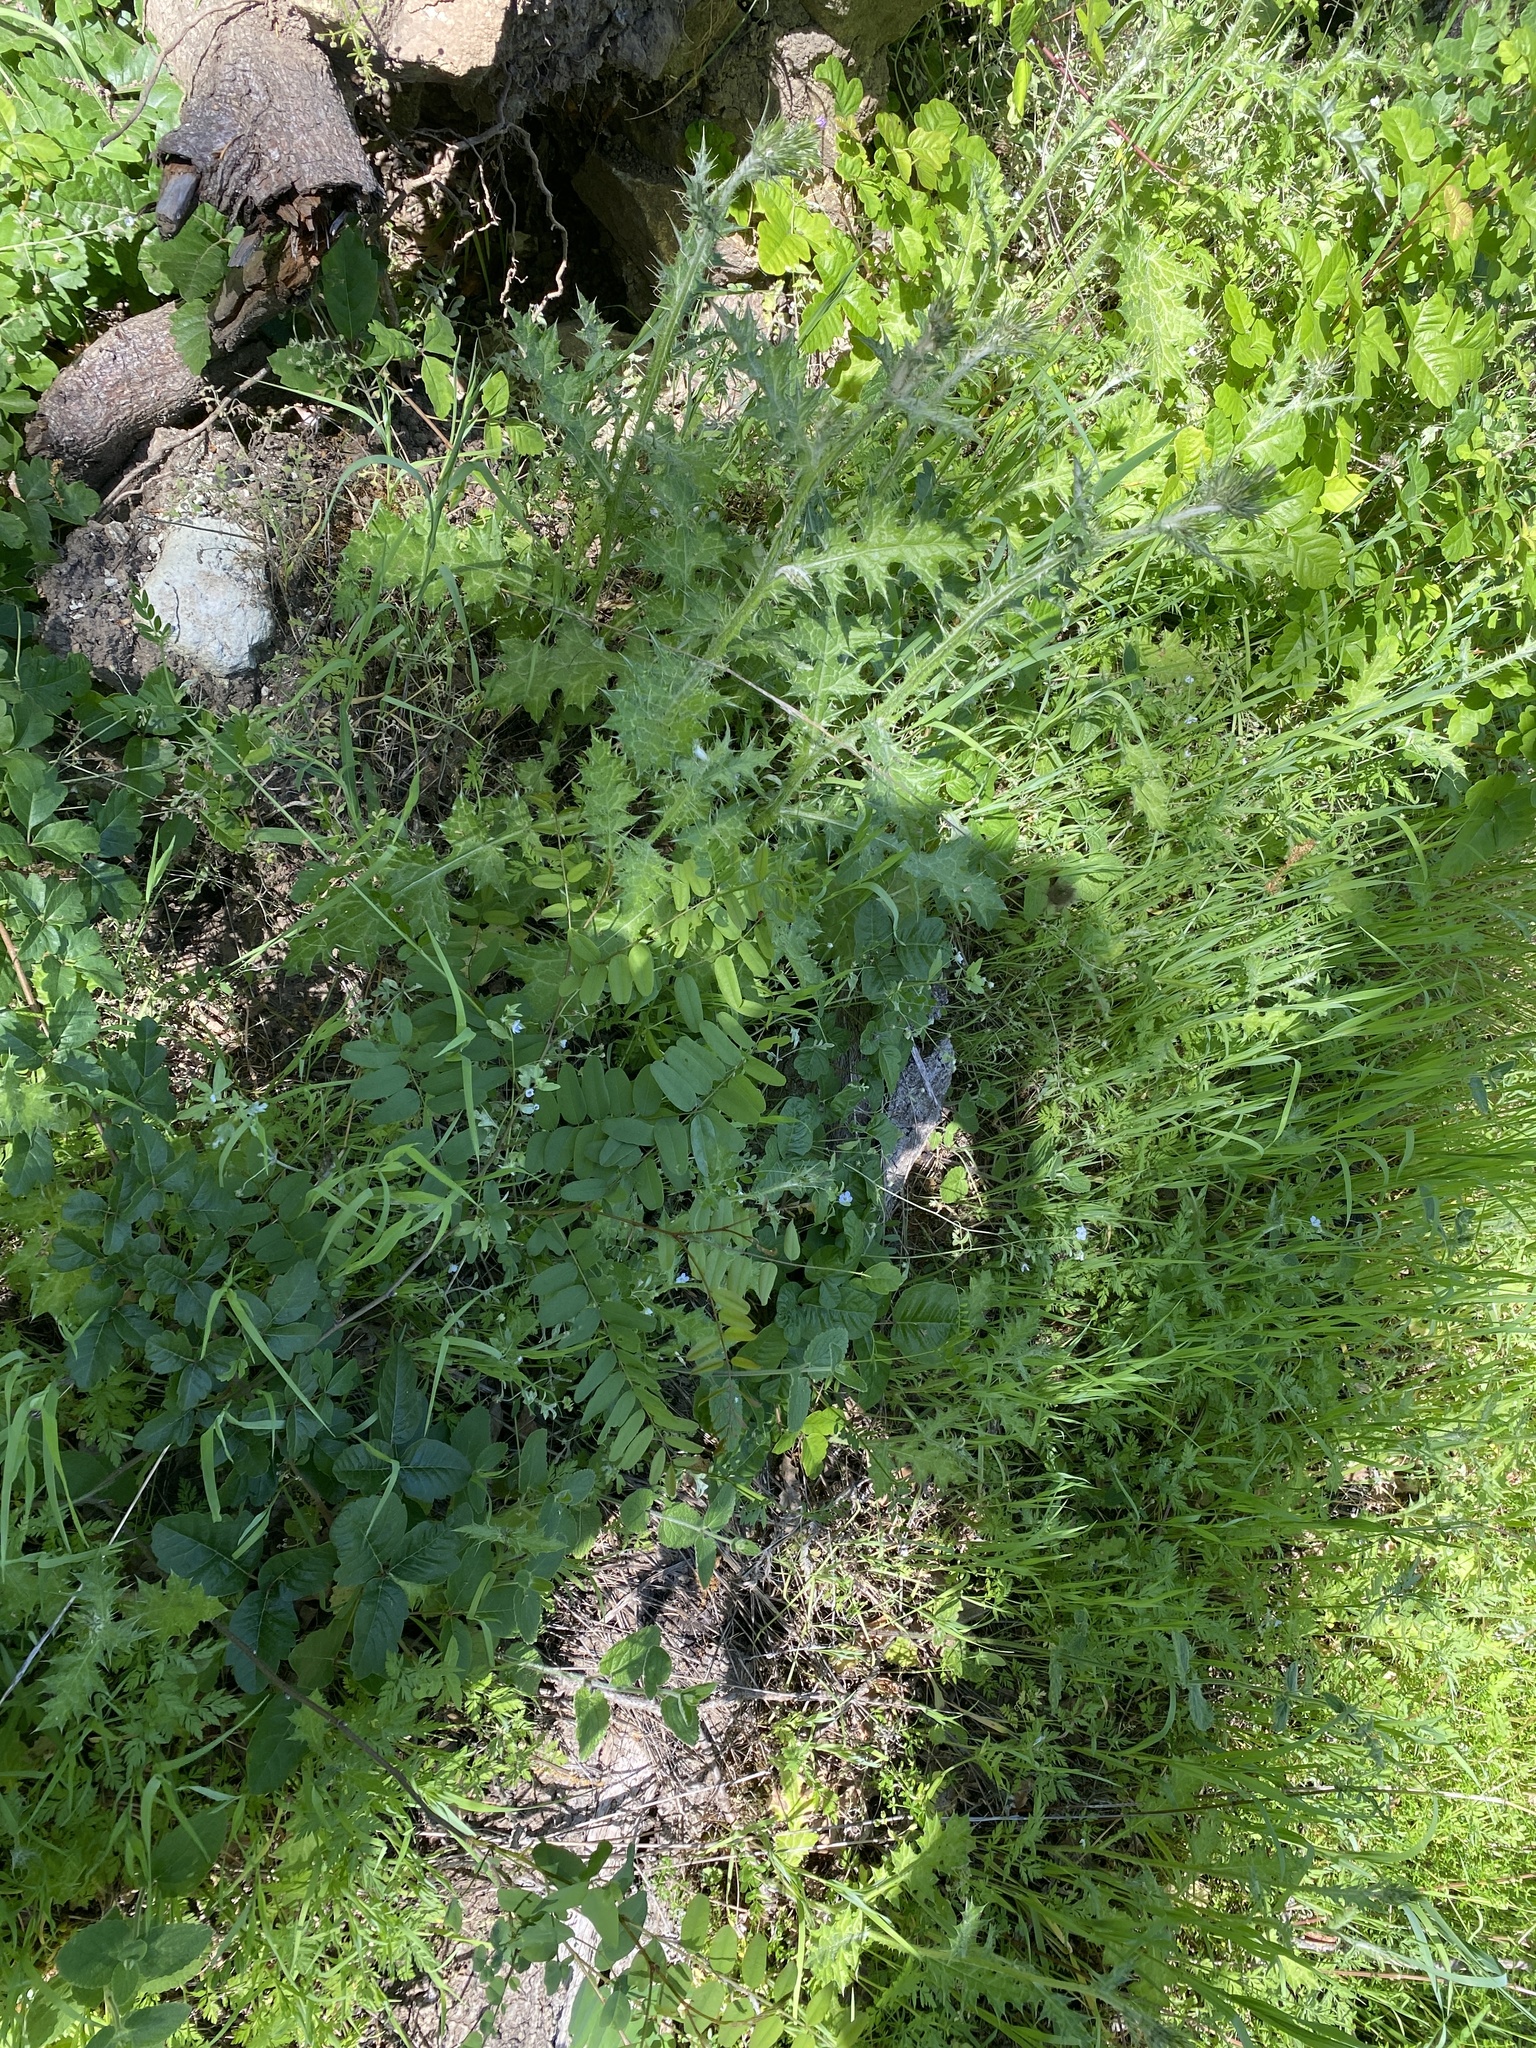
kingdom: Plantae
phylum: Tracheophyta
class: Magnoliopsida
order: Boraginales
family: Hydrophyllaceae
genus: Nemophila
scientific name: Nemophila heterophylla
